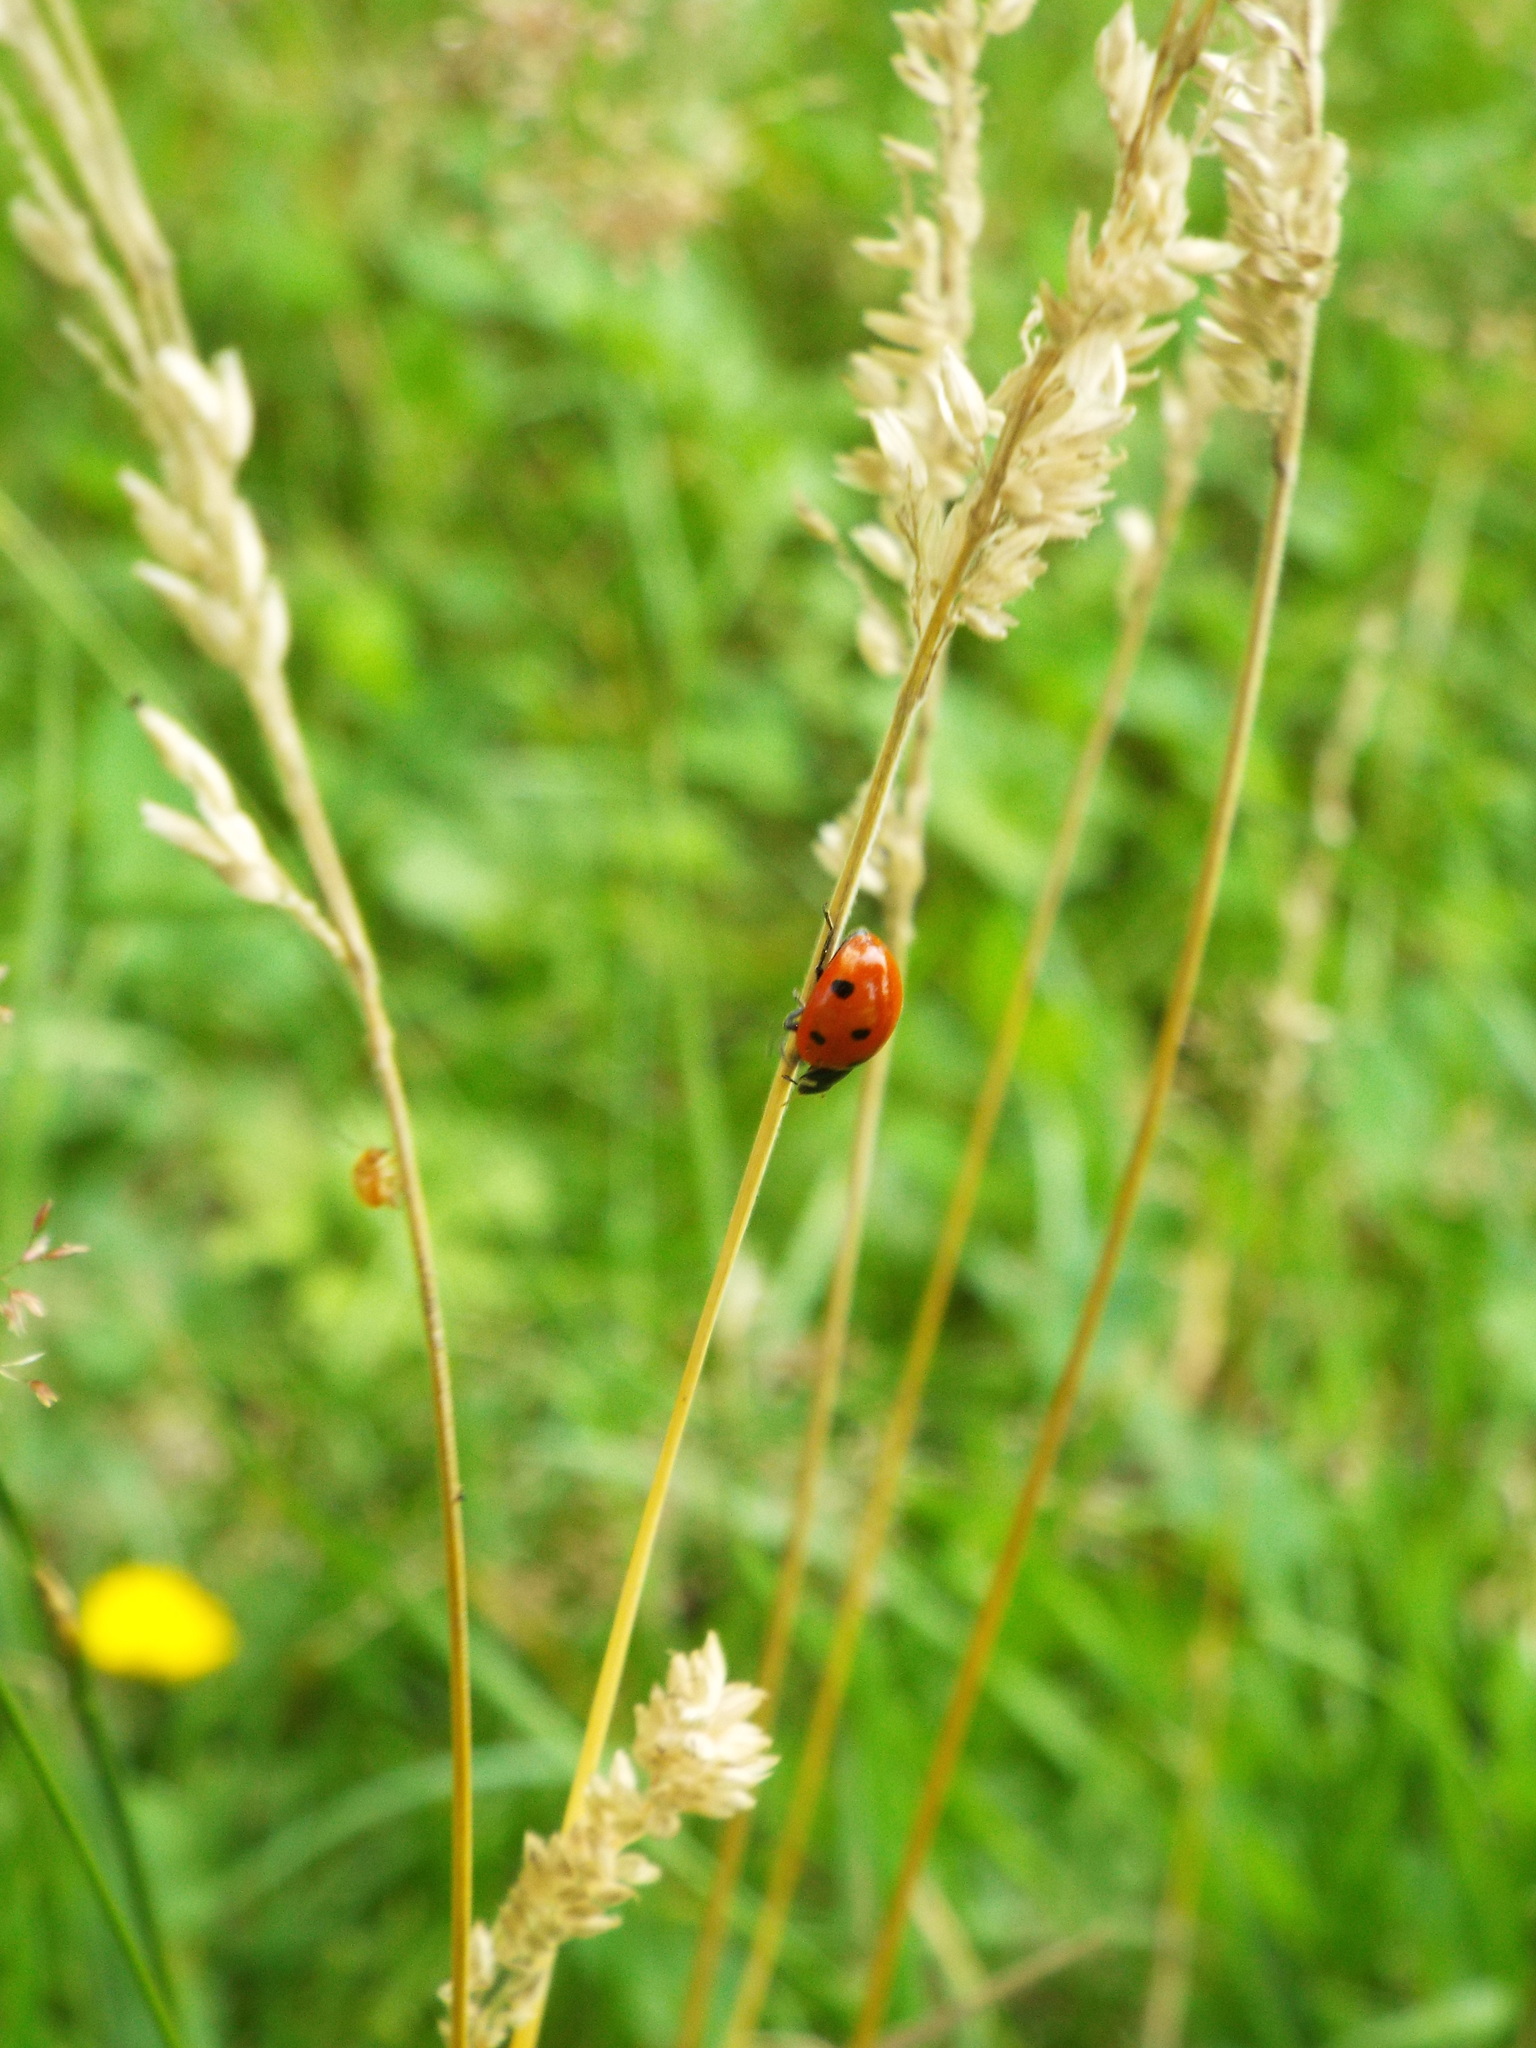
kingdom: Animalia
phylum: Arthropoda
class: Insecta
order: Coleoptera
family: Coccinellidae
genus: Coccinella
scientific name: Coccinella septempunctata
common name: Sevenspotted lady beetle
